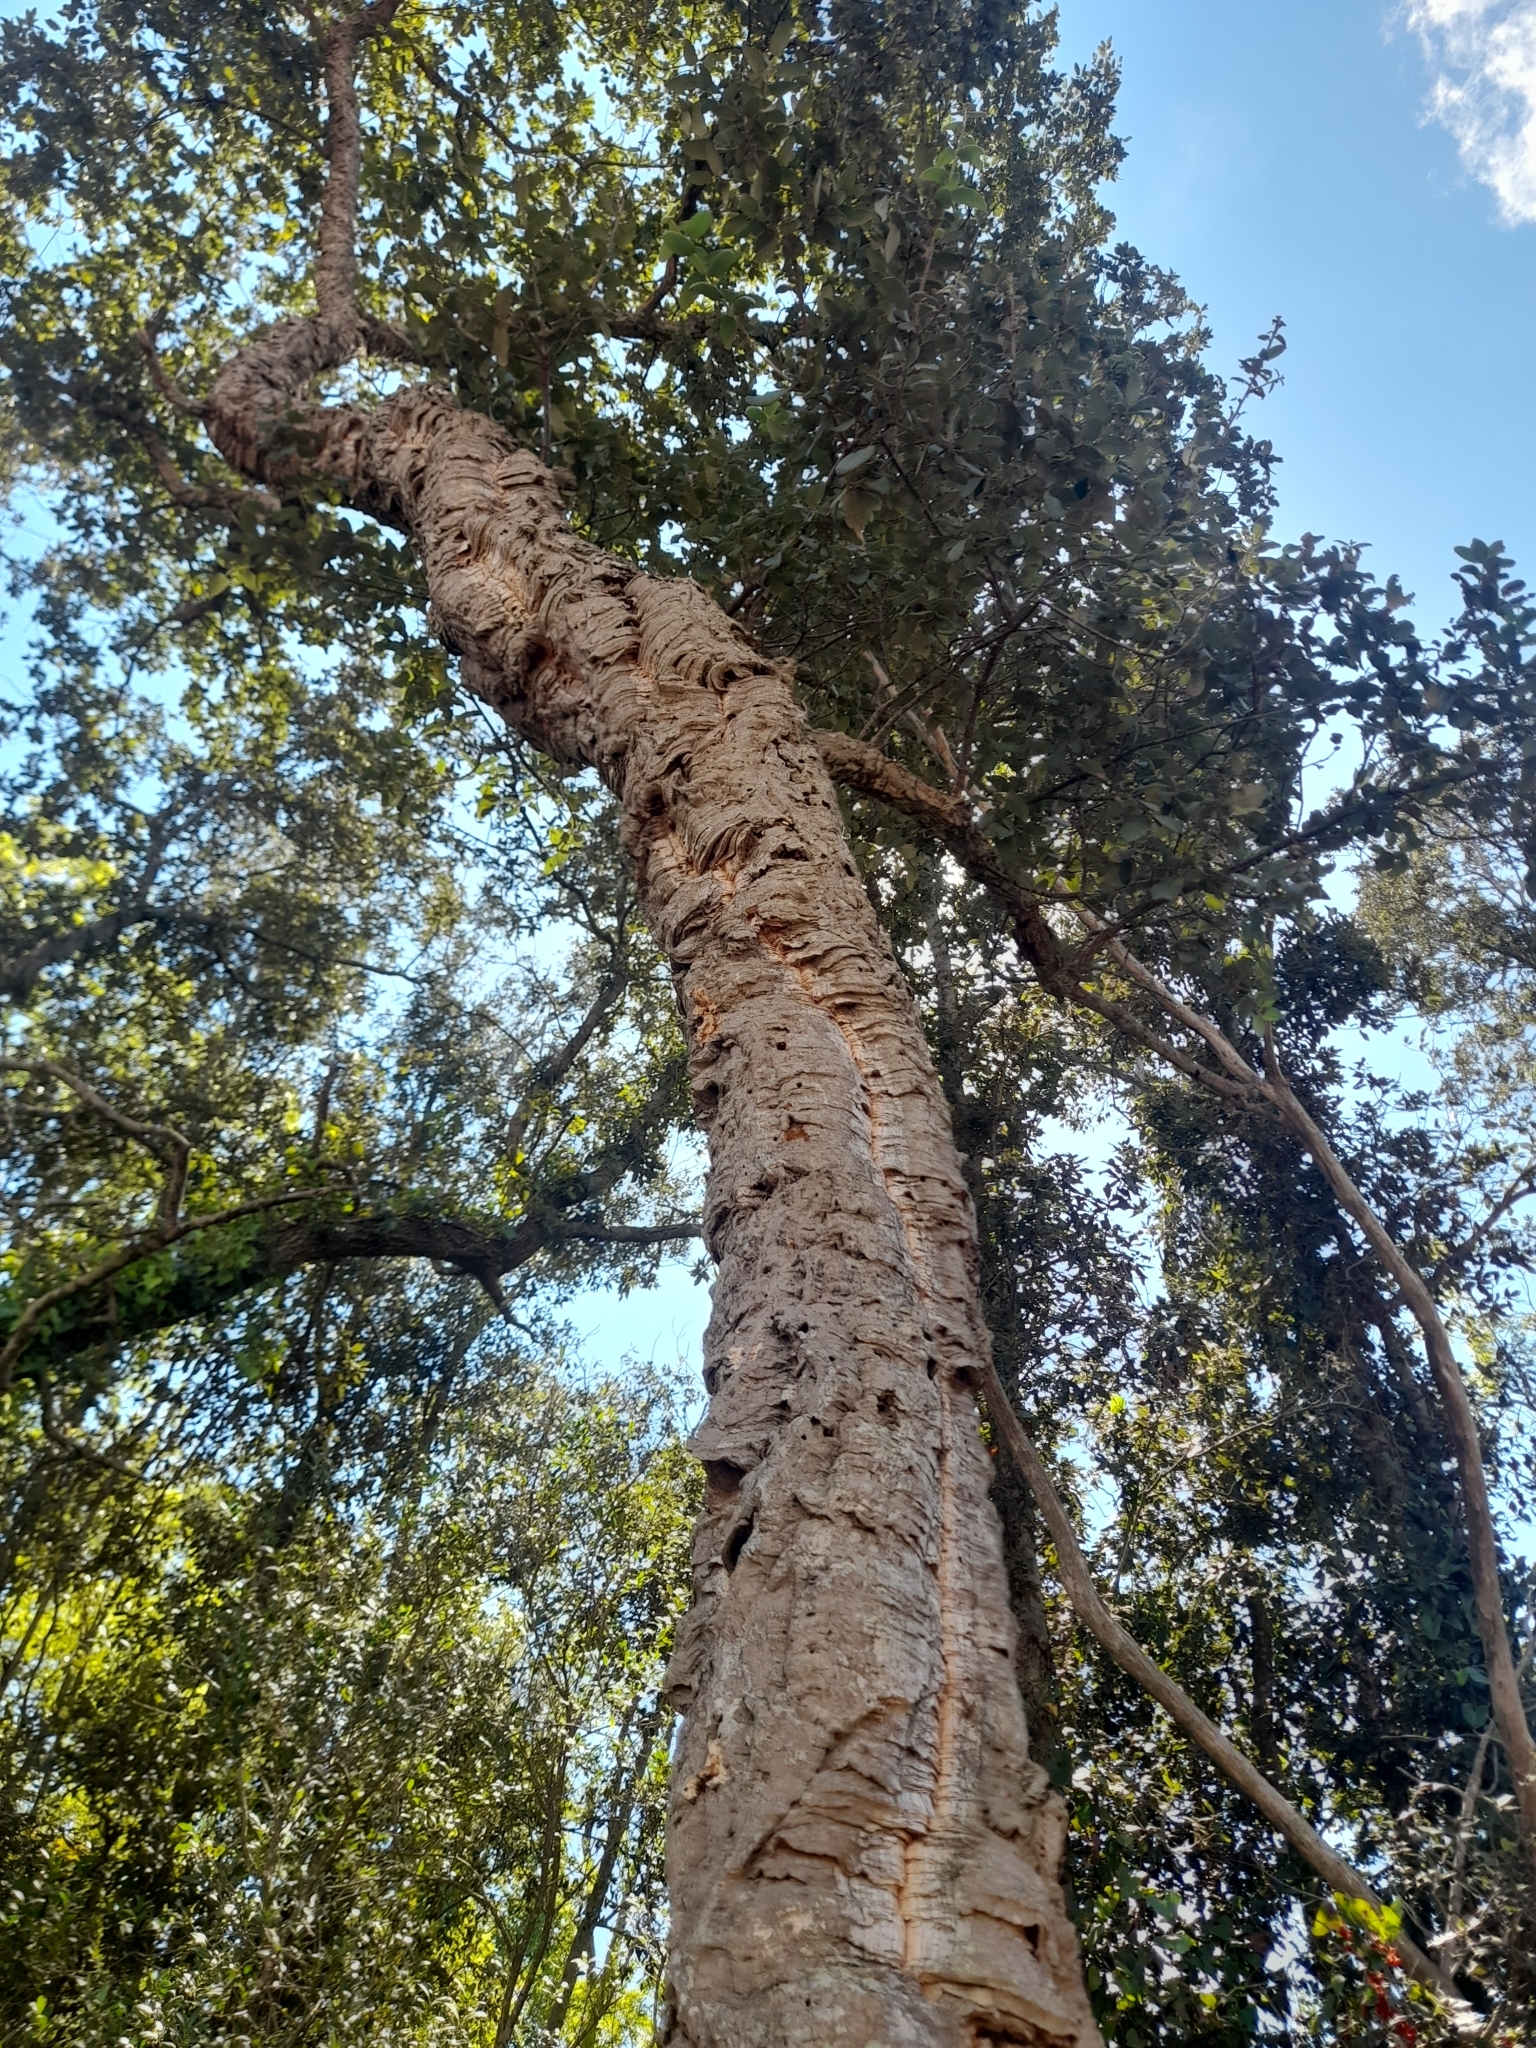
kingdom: Plantae
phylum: Tracheophyta
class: Magnoliopsida
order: Fagales
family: Fagaceae
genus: Quercus
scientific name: Quercus suber
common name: Cork oak
